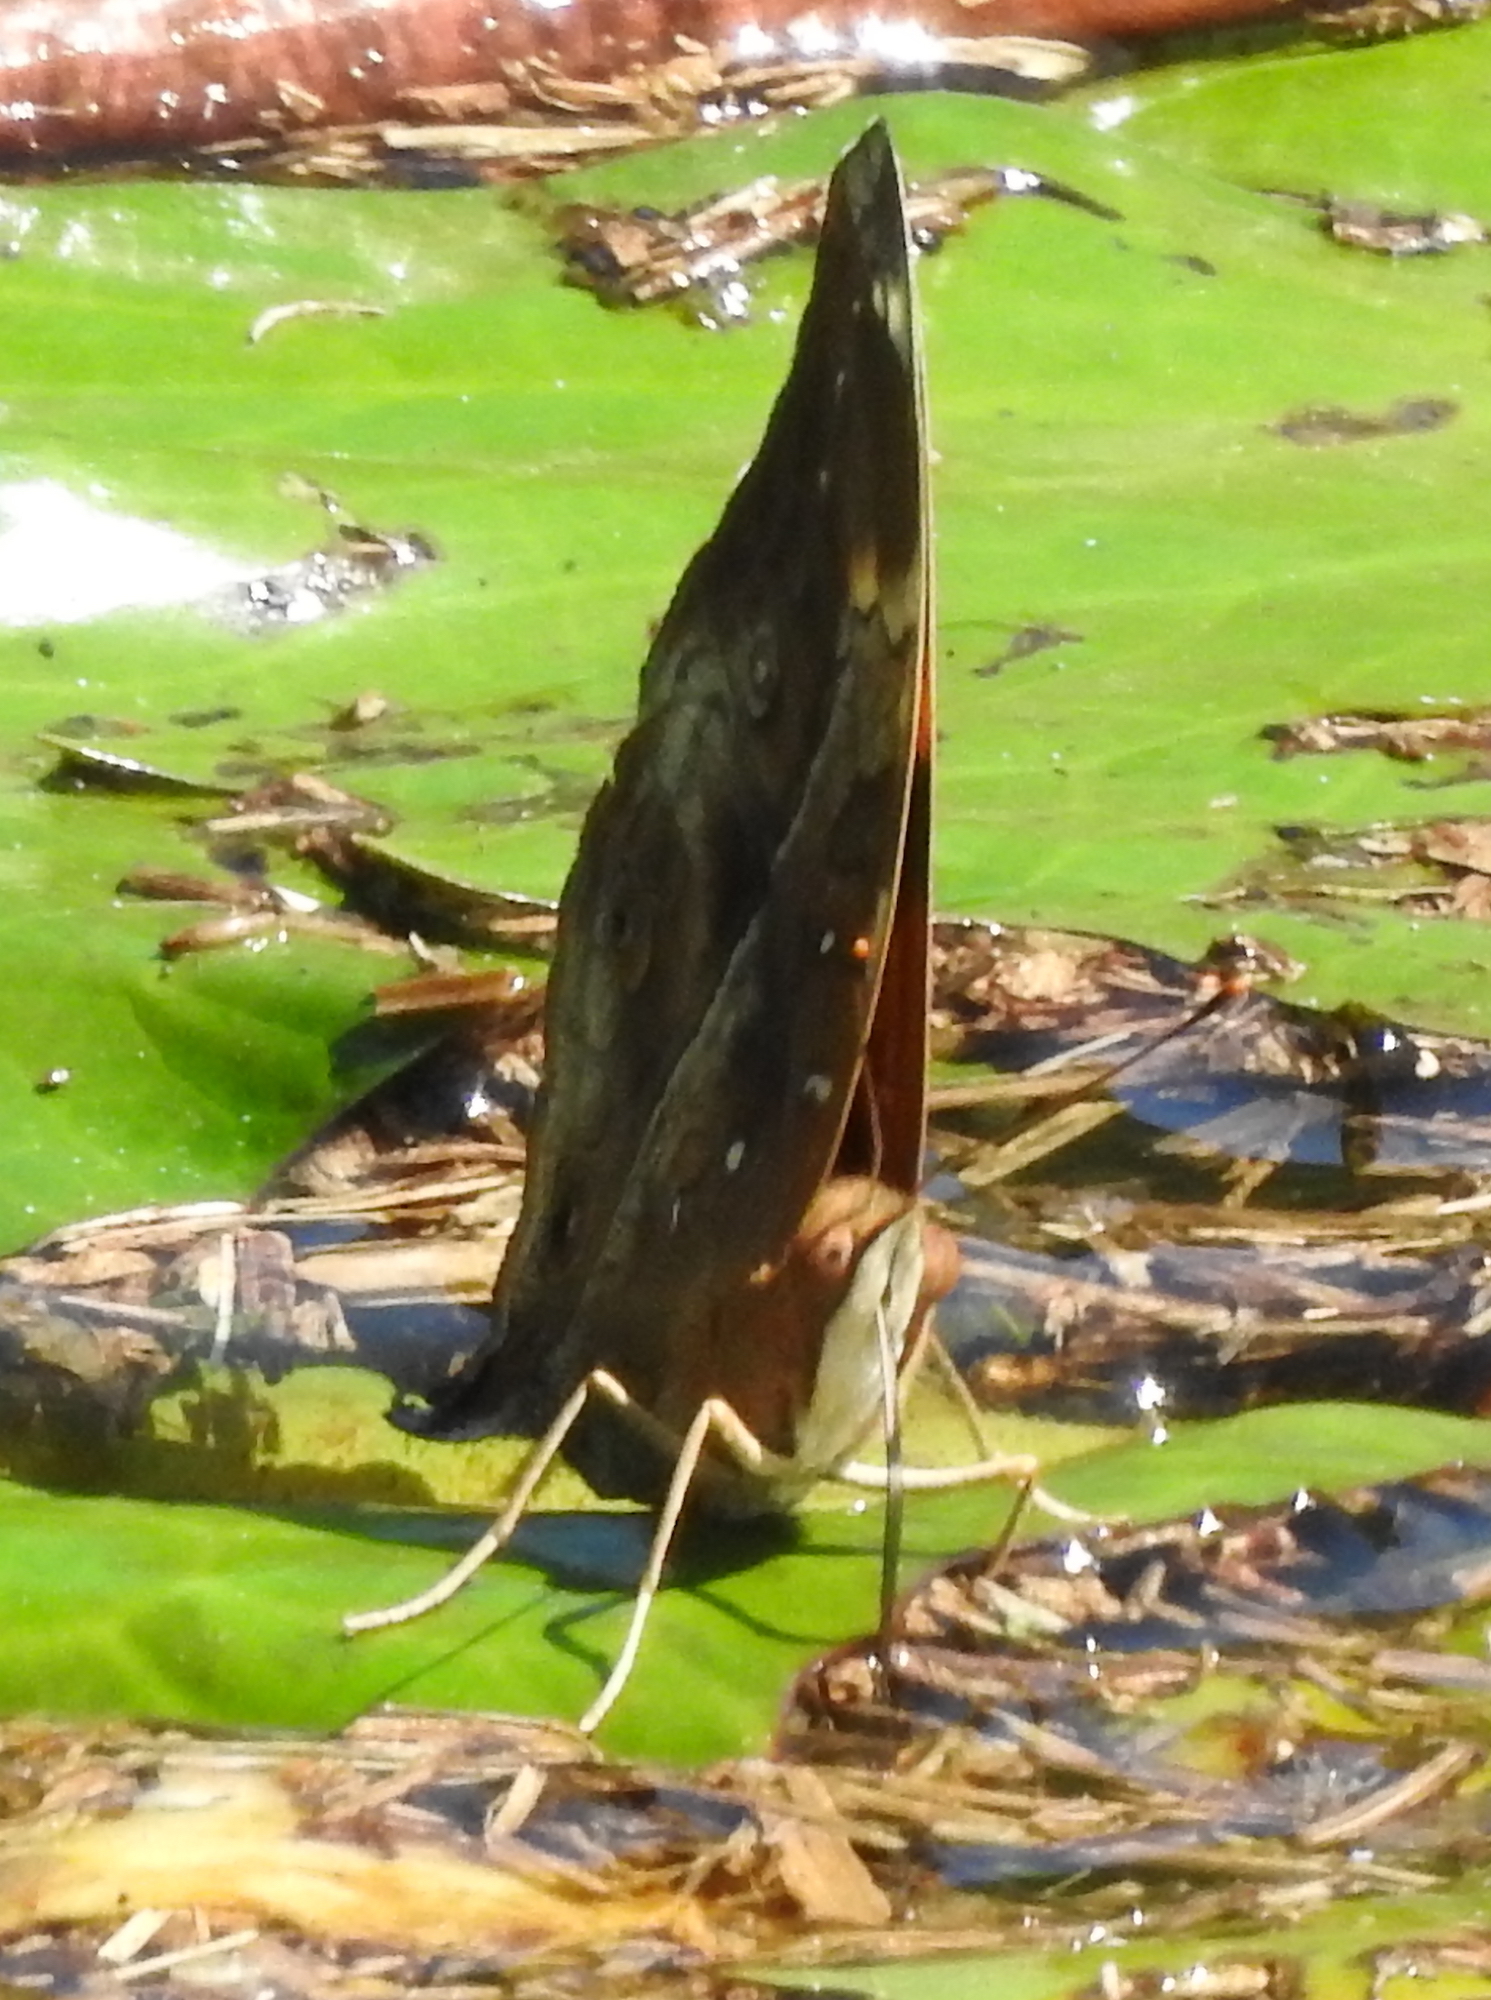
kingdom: Animalia
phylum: Arthropoda
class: Insecta
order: Lepidoptera
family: Nymphalidae
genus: Doleschallia
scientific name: Doleschallia bisaltide
